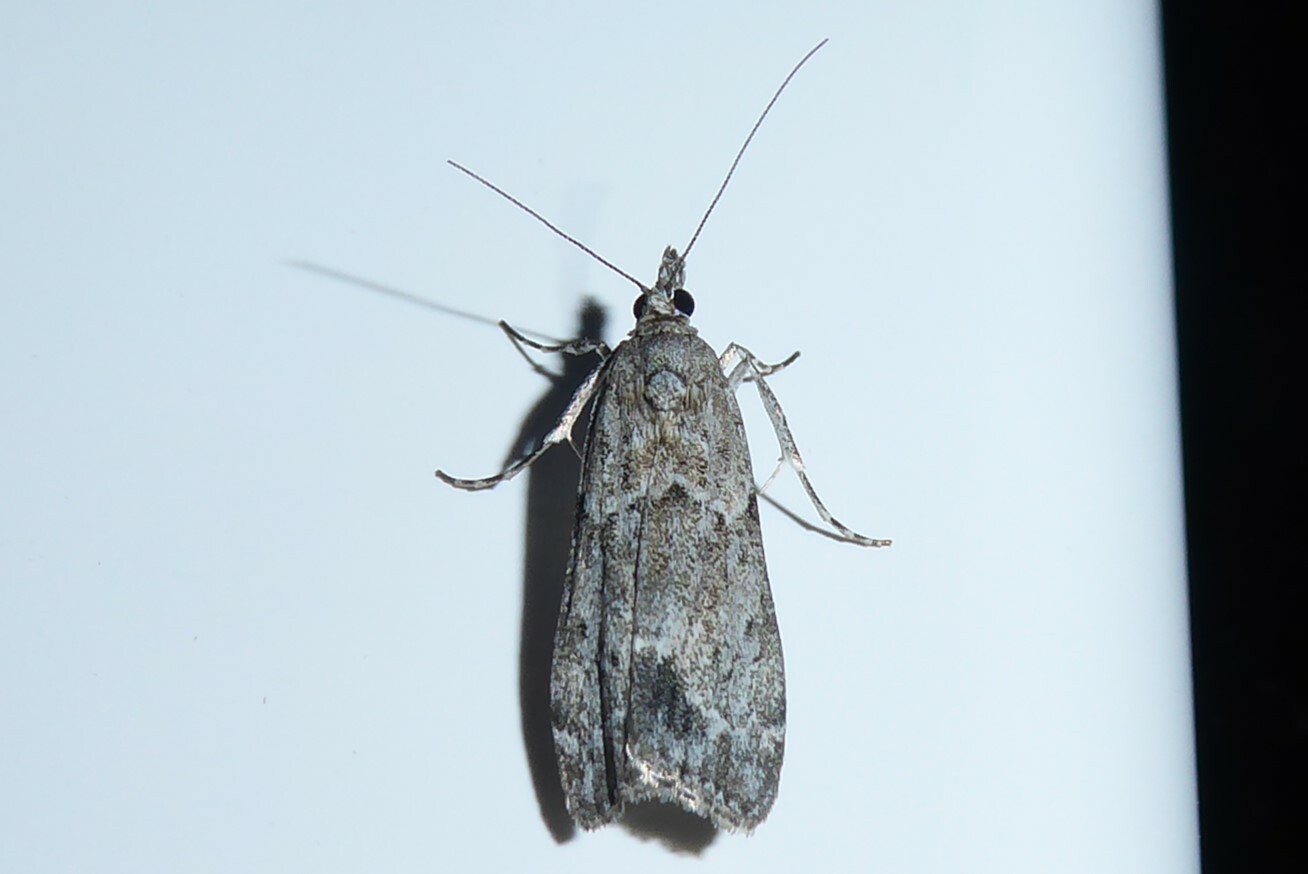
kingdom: Animalia
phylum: Arthropoda
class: Insecta
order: Lepidoptera
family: Crambidae
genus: Eudonia
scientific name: Eudonia rakaiensis
